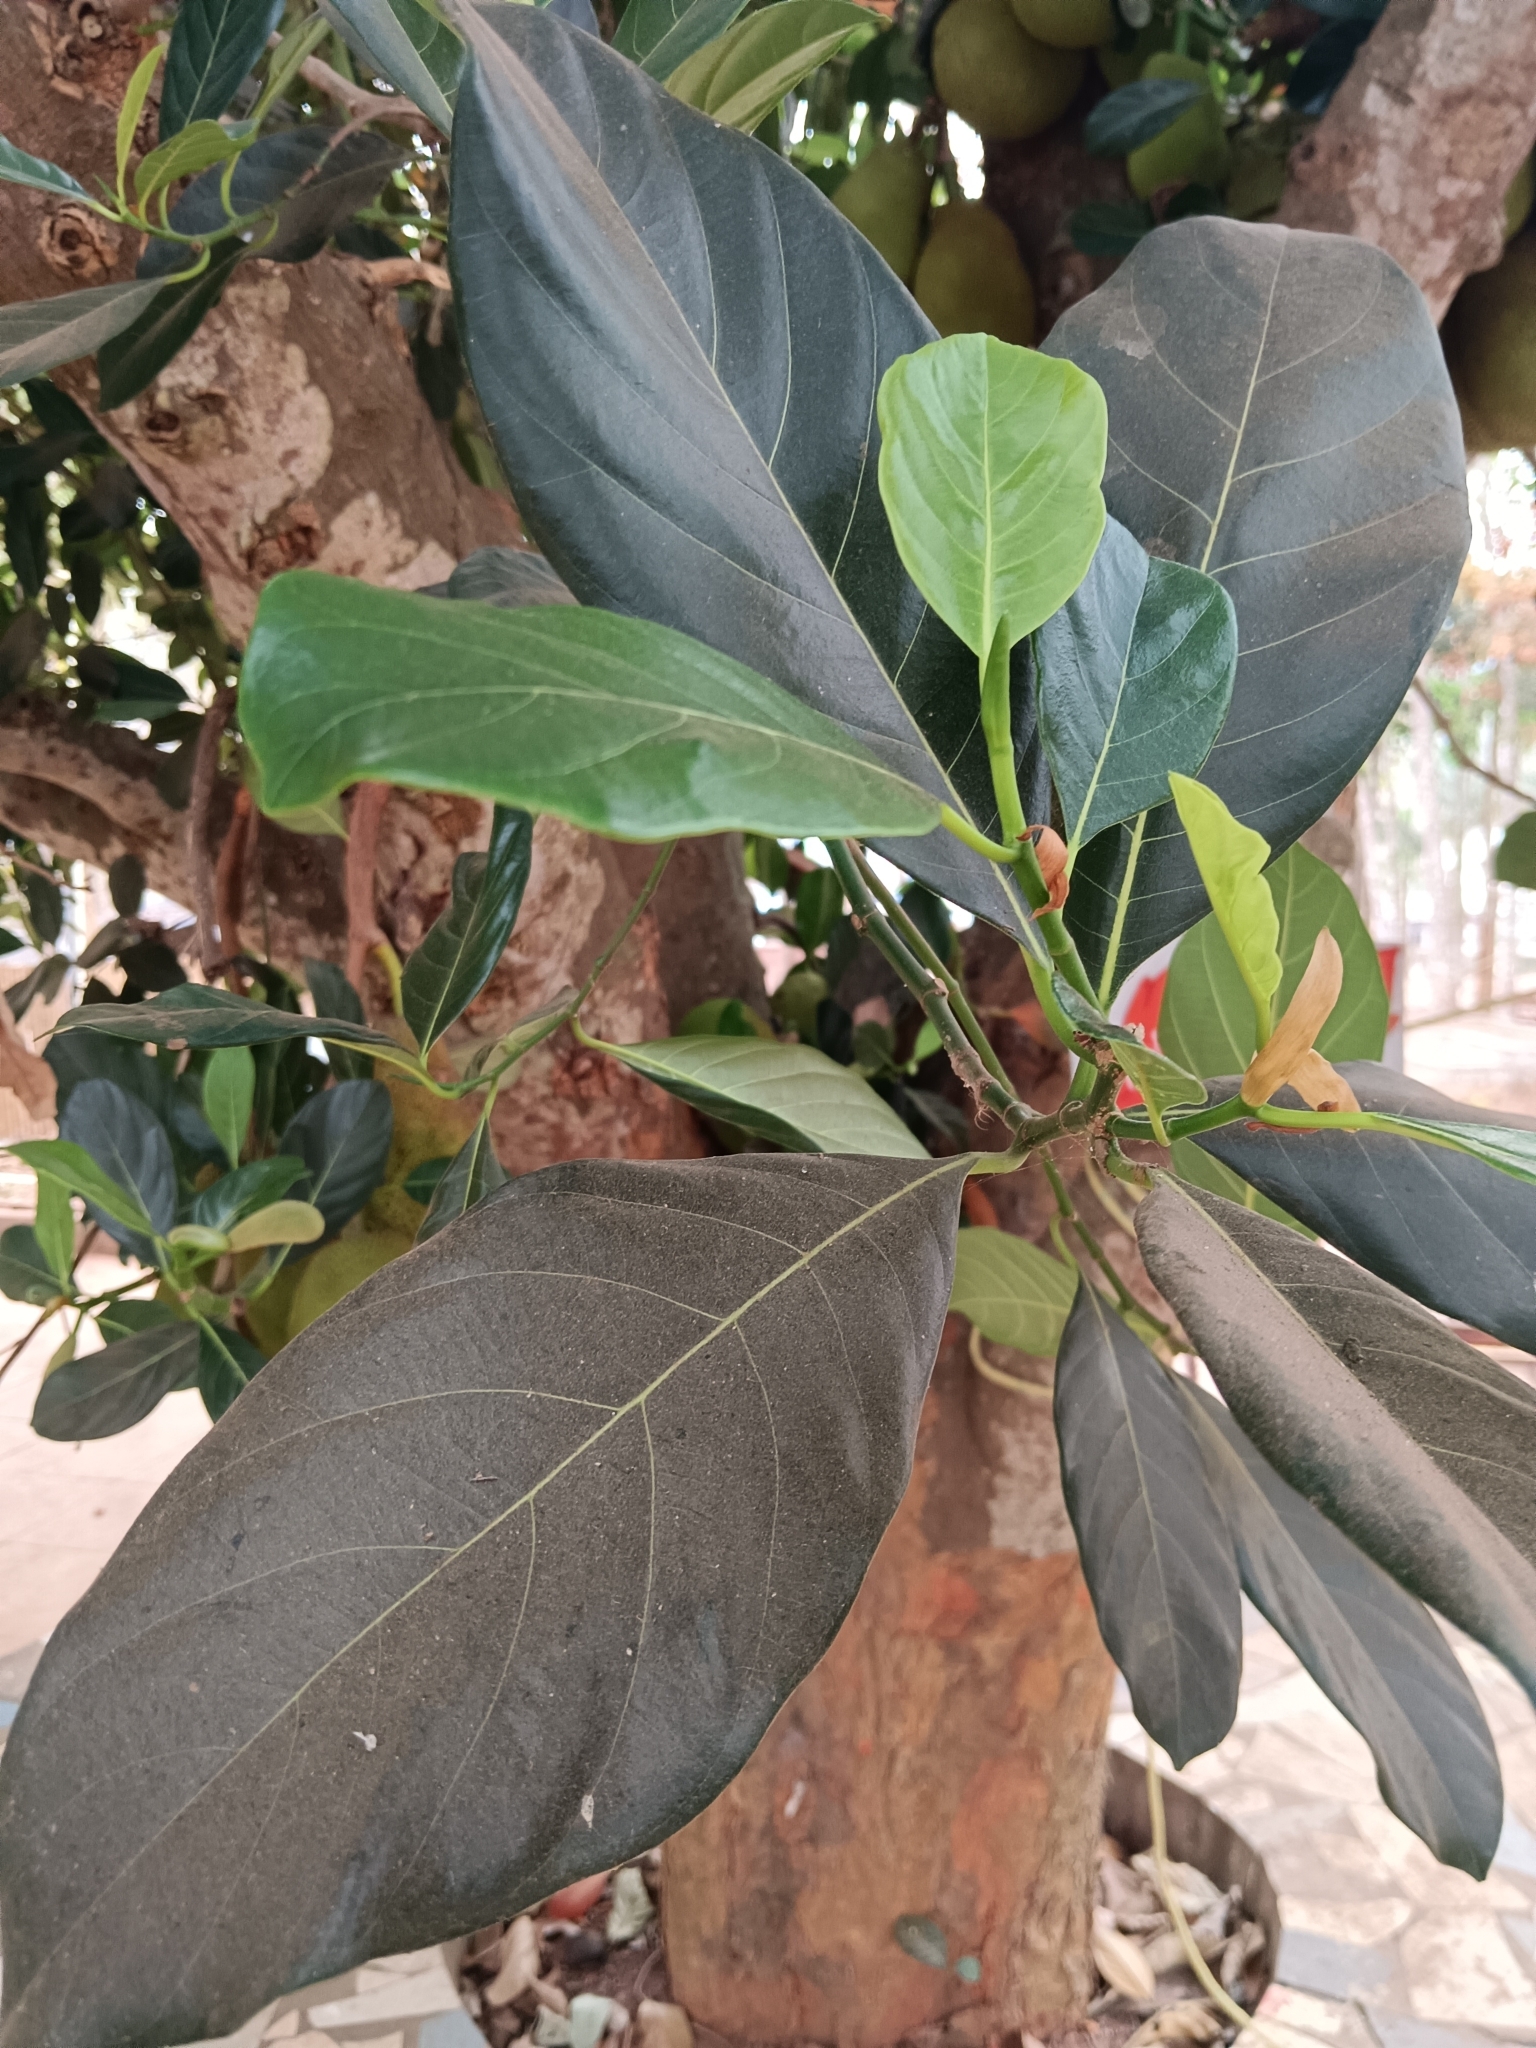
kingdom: Plantae
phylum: Tracheophyta
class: Magnoliopsida
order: Rosales
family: Moraceae
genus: Artocarpus
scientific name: Artocarpus heterophyllus
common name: Jackfruit
